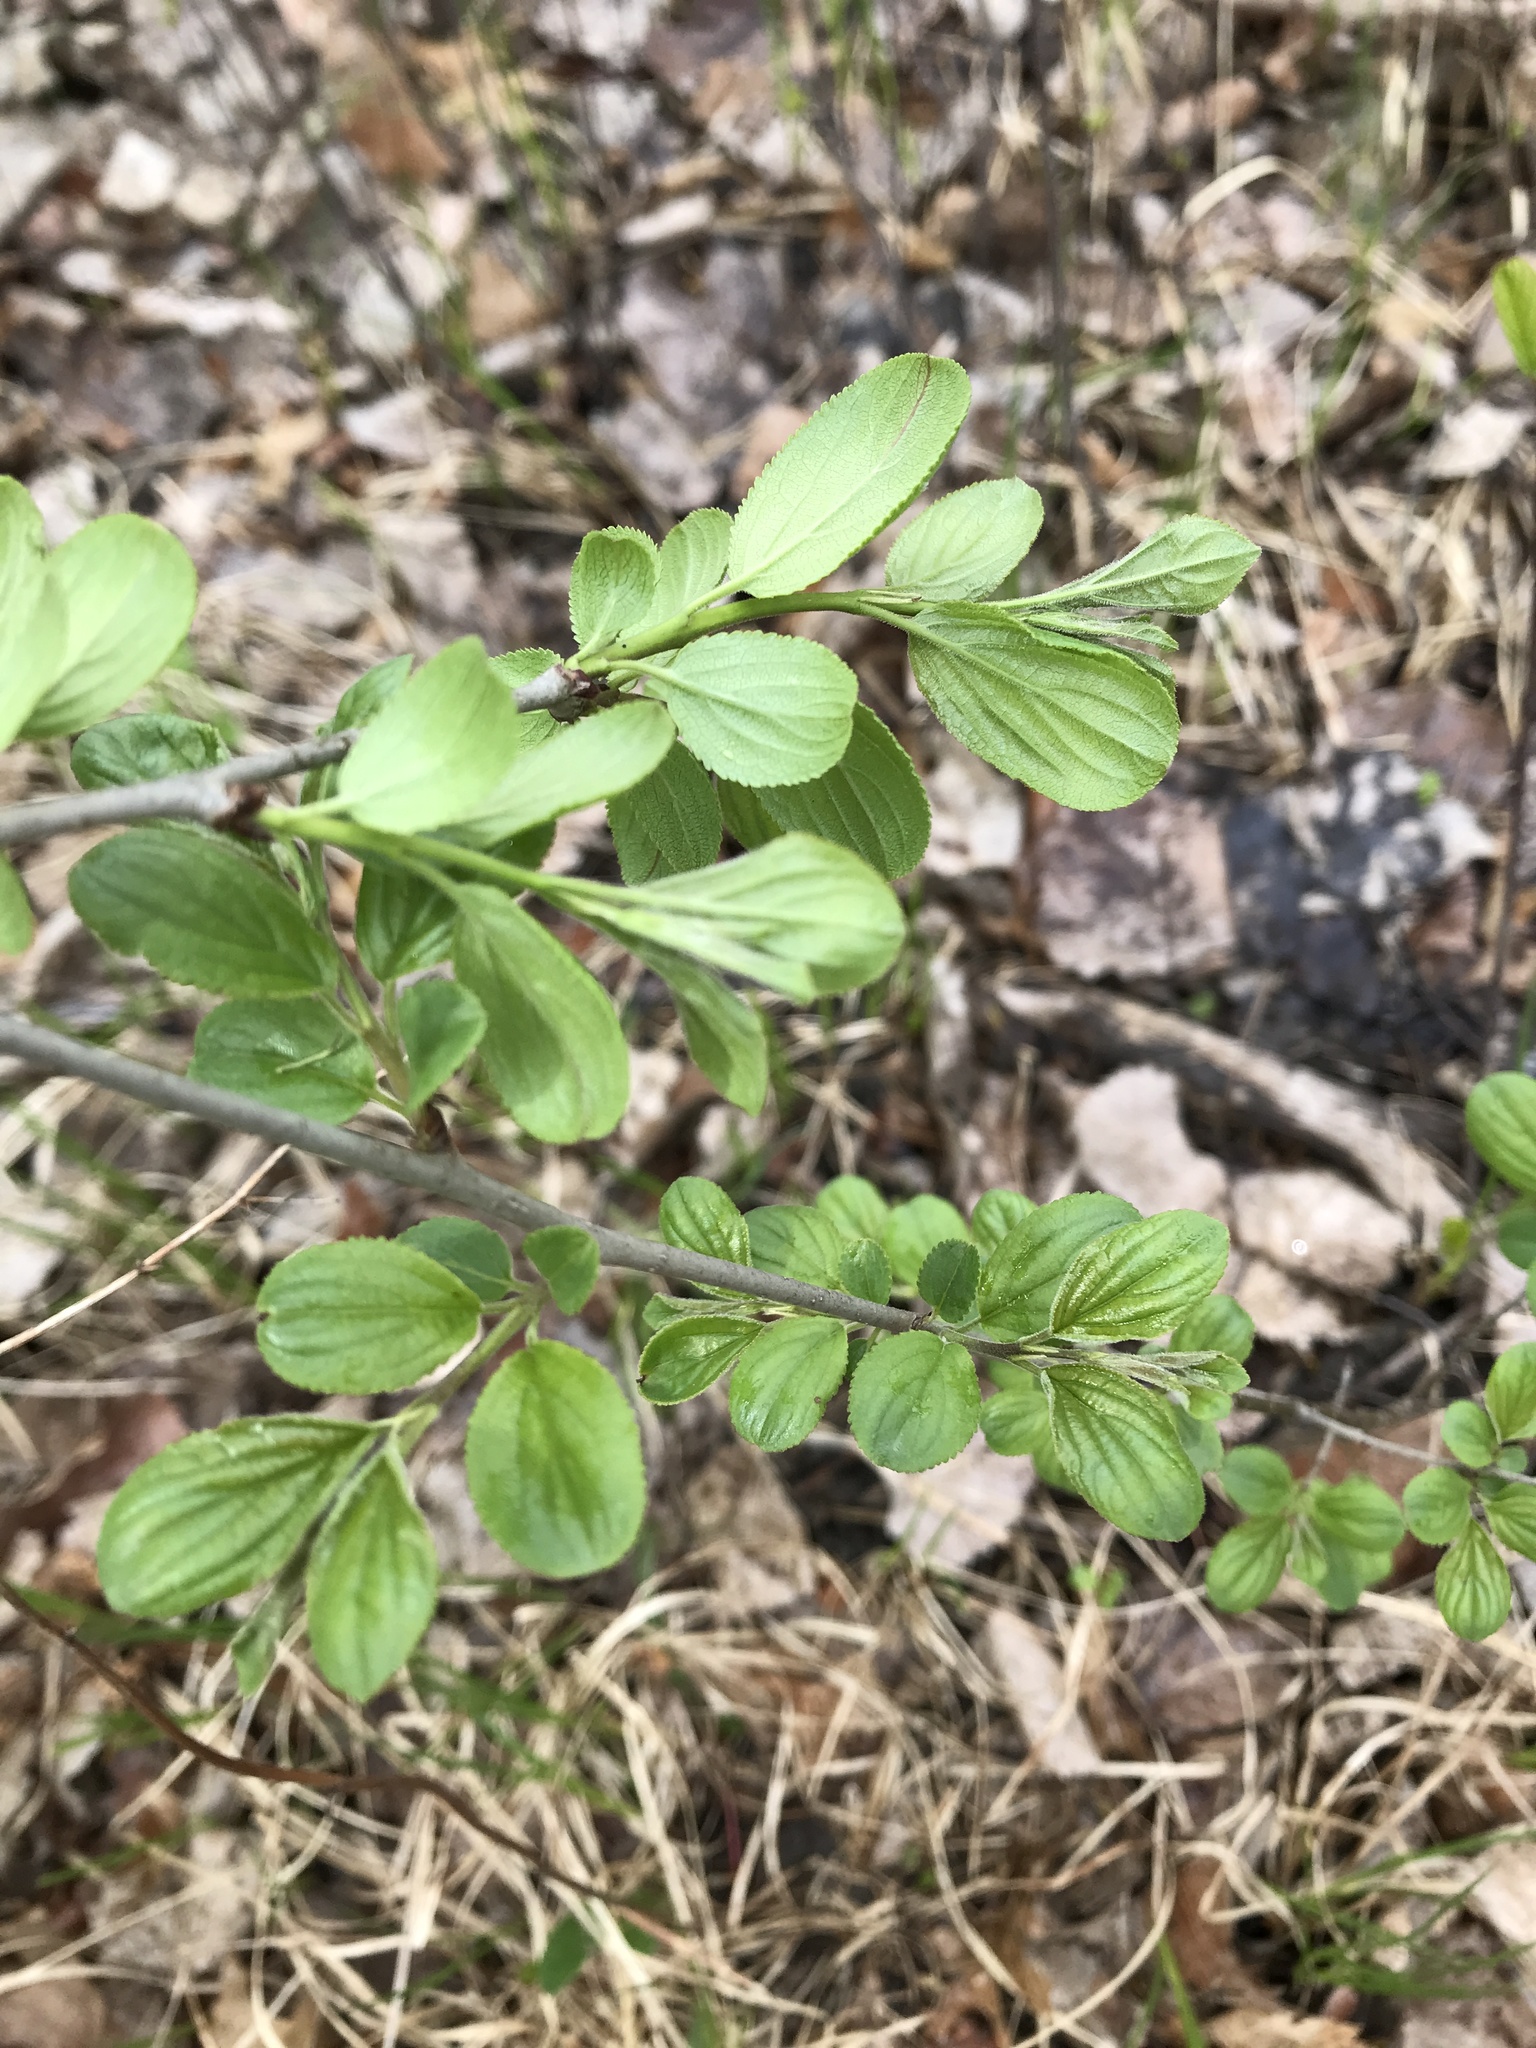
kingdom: Plantae
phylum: Tracheophyta
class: Magnoliopsida
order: Rosales
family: Rhamnaceae
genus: Rhamnus
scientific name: Rhamnus cathartica
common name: Common buckthorn
